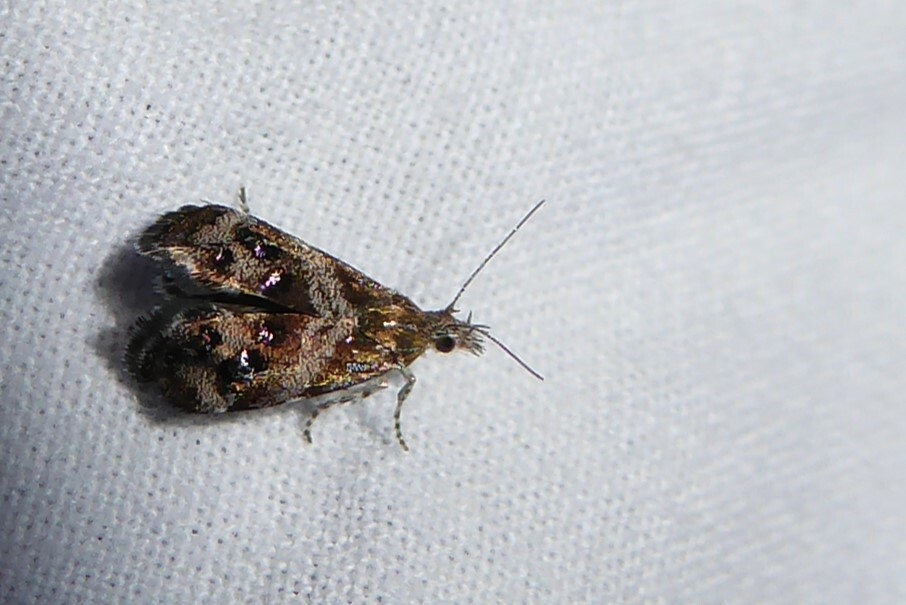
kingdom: Animalia
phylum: Arthropoda
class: Insecta
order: Lepidoptera
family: Choreutidae
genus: Tebenna
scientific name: Tebenna micalis
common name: Vagrant twitcher
